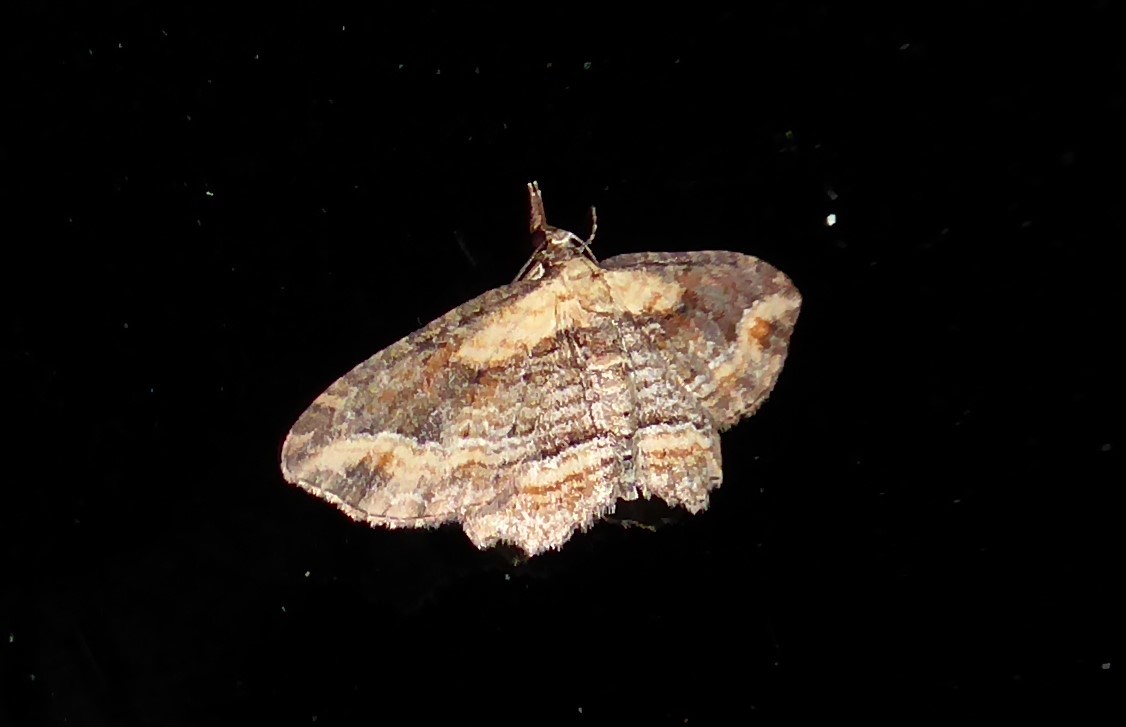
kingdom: Animalia
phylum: Arthropoda
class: Insecta
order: Lepidoptera
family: Geometridae
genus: Chloroclystis
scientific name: Chloroclystis filata
